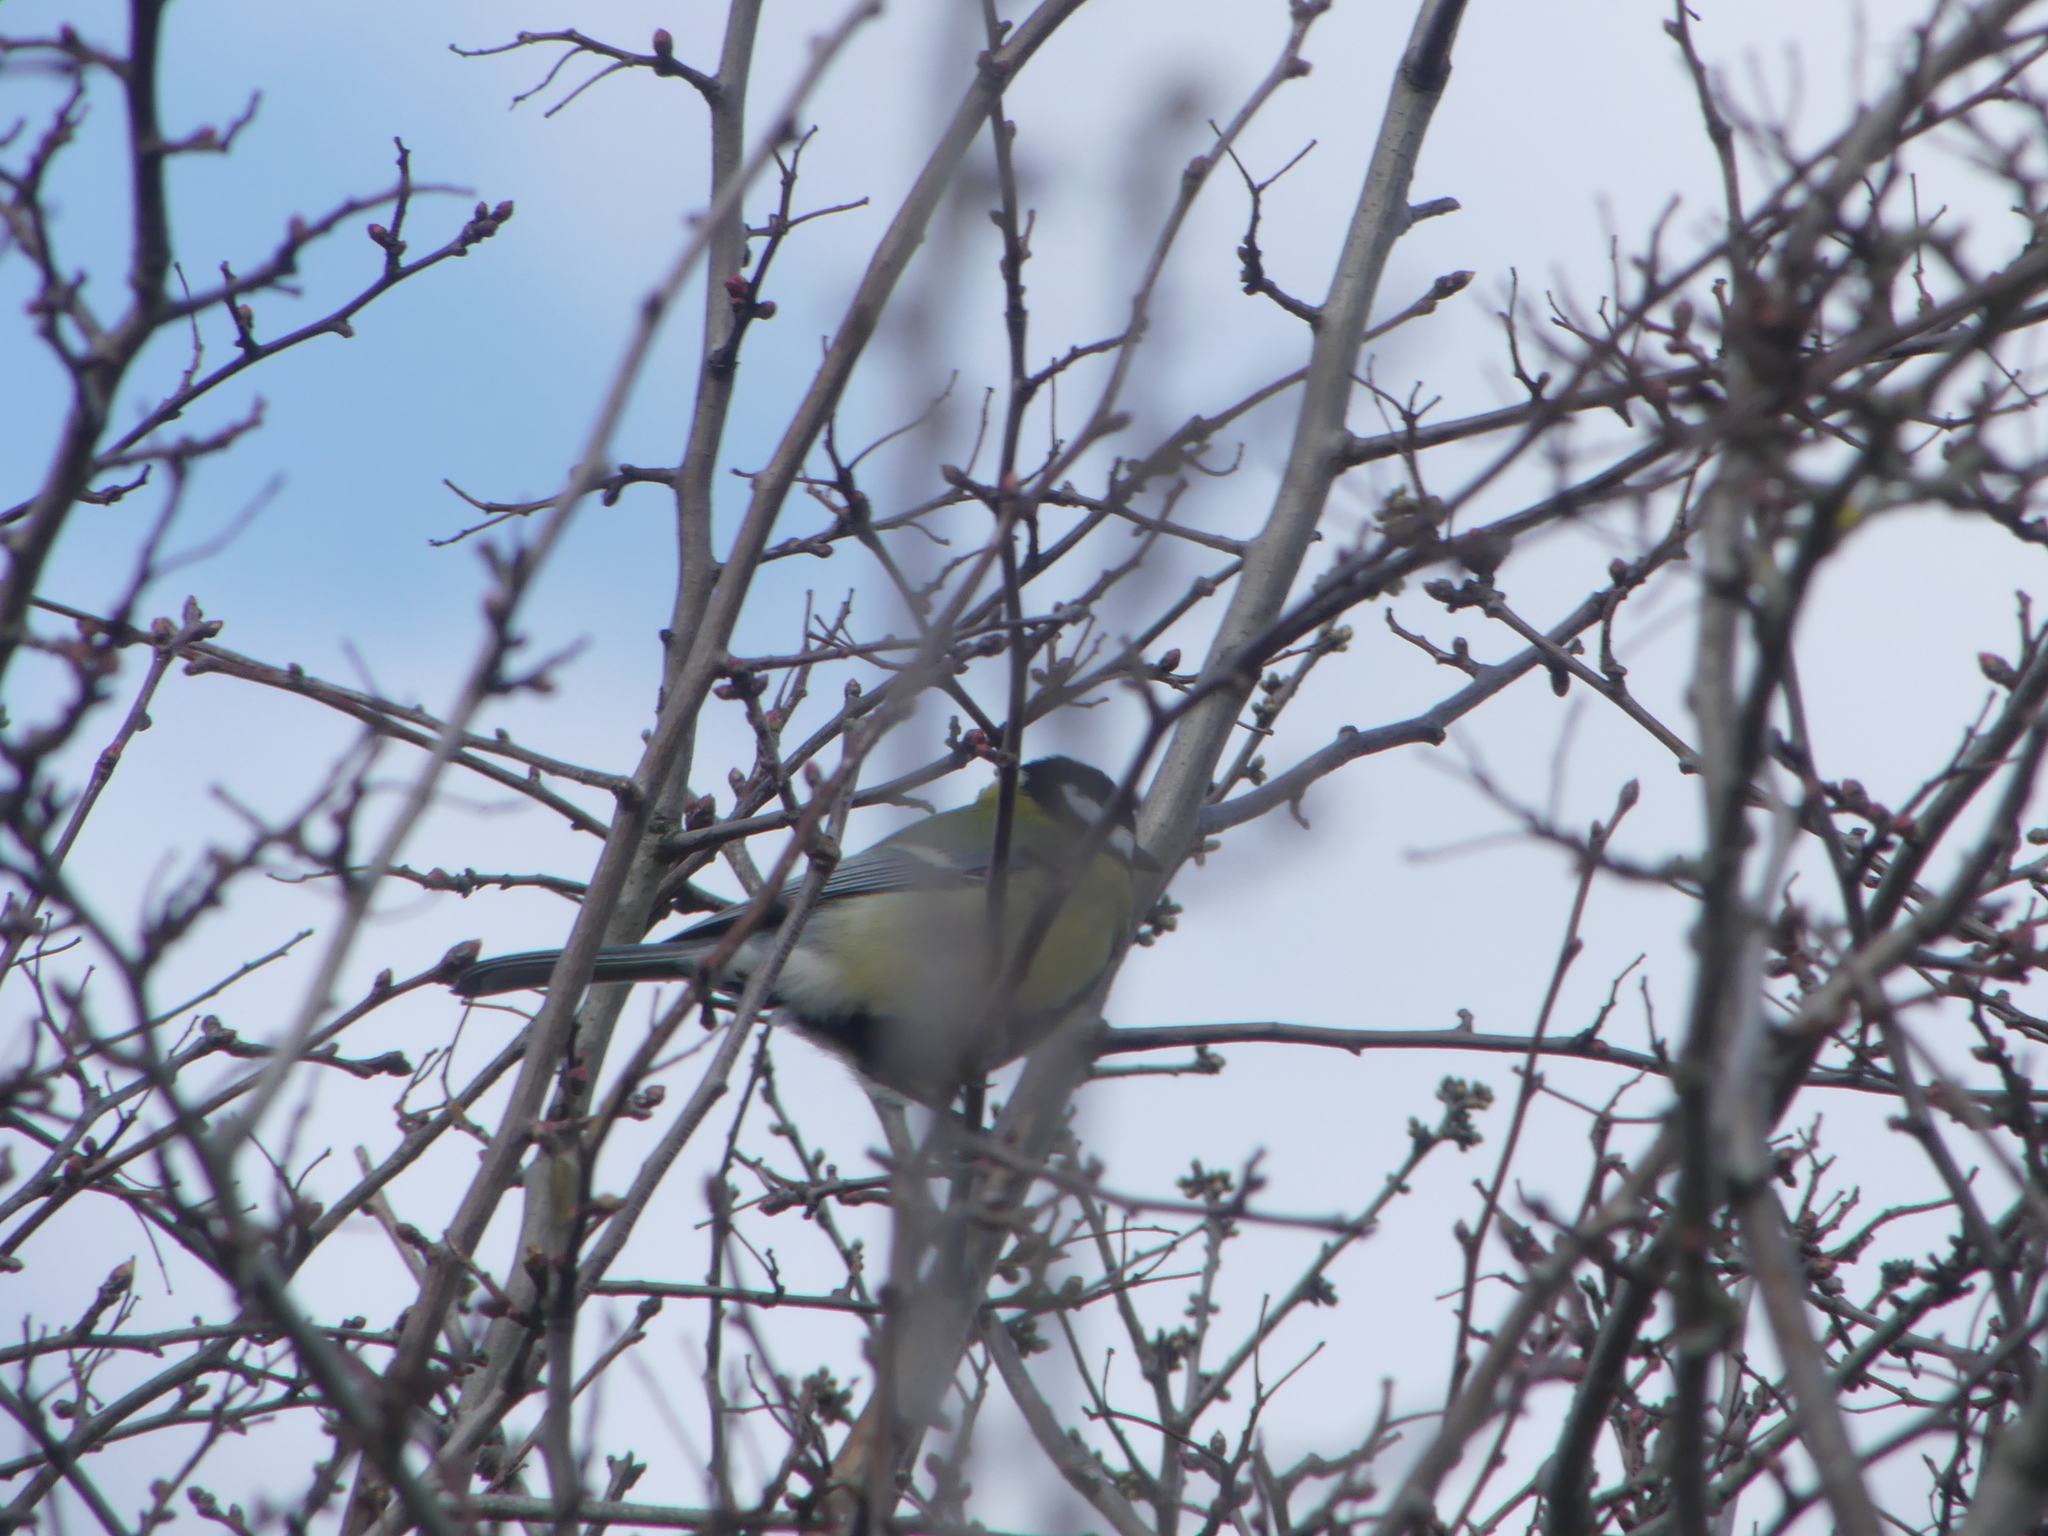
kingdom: Animalia
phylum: Chordata
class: Aves
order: Passeriformes
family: Paridae
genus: Parus
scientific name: Parus major
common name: Great tit
